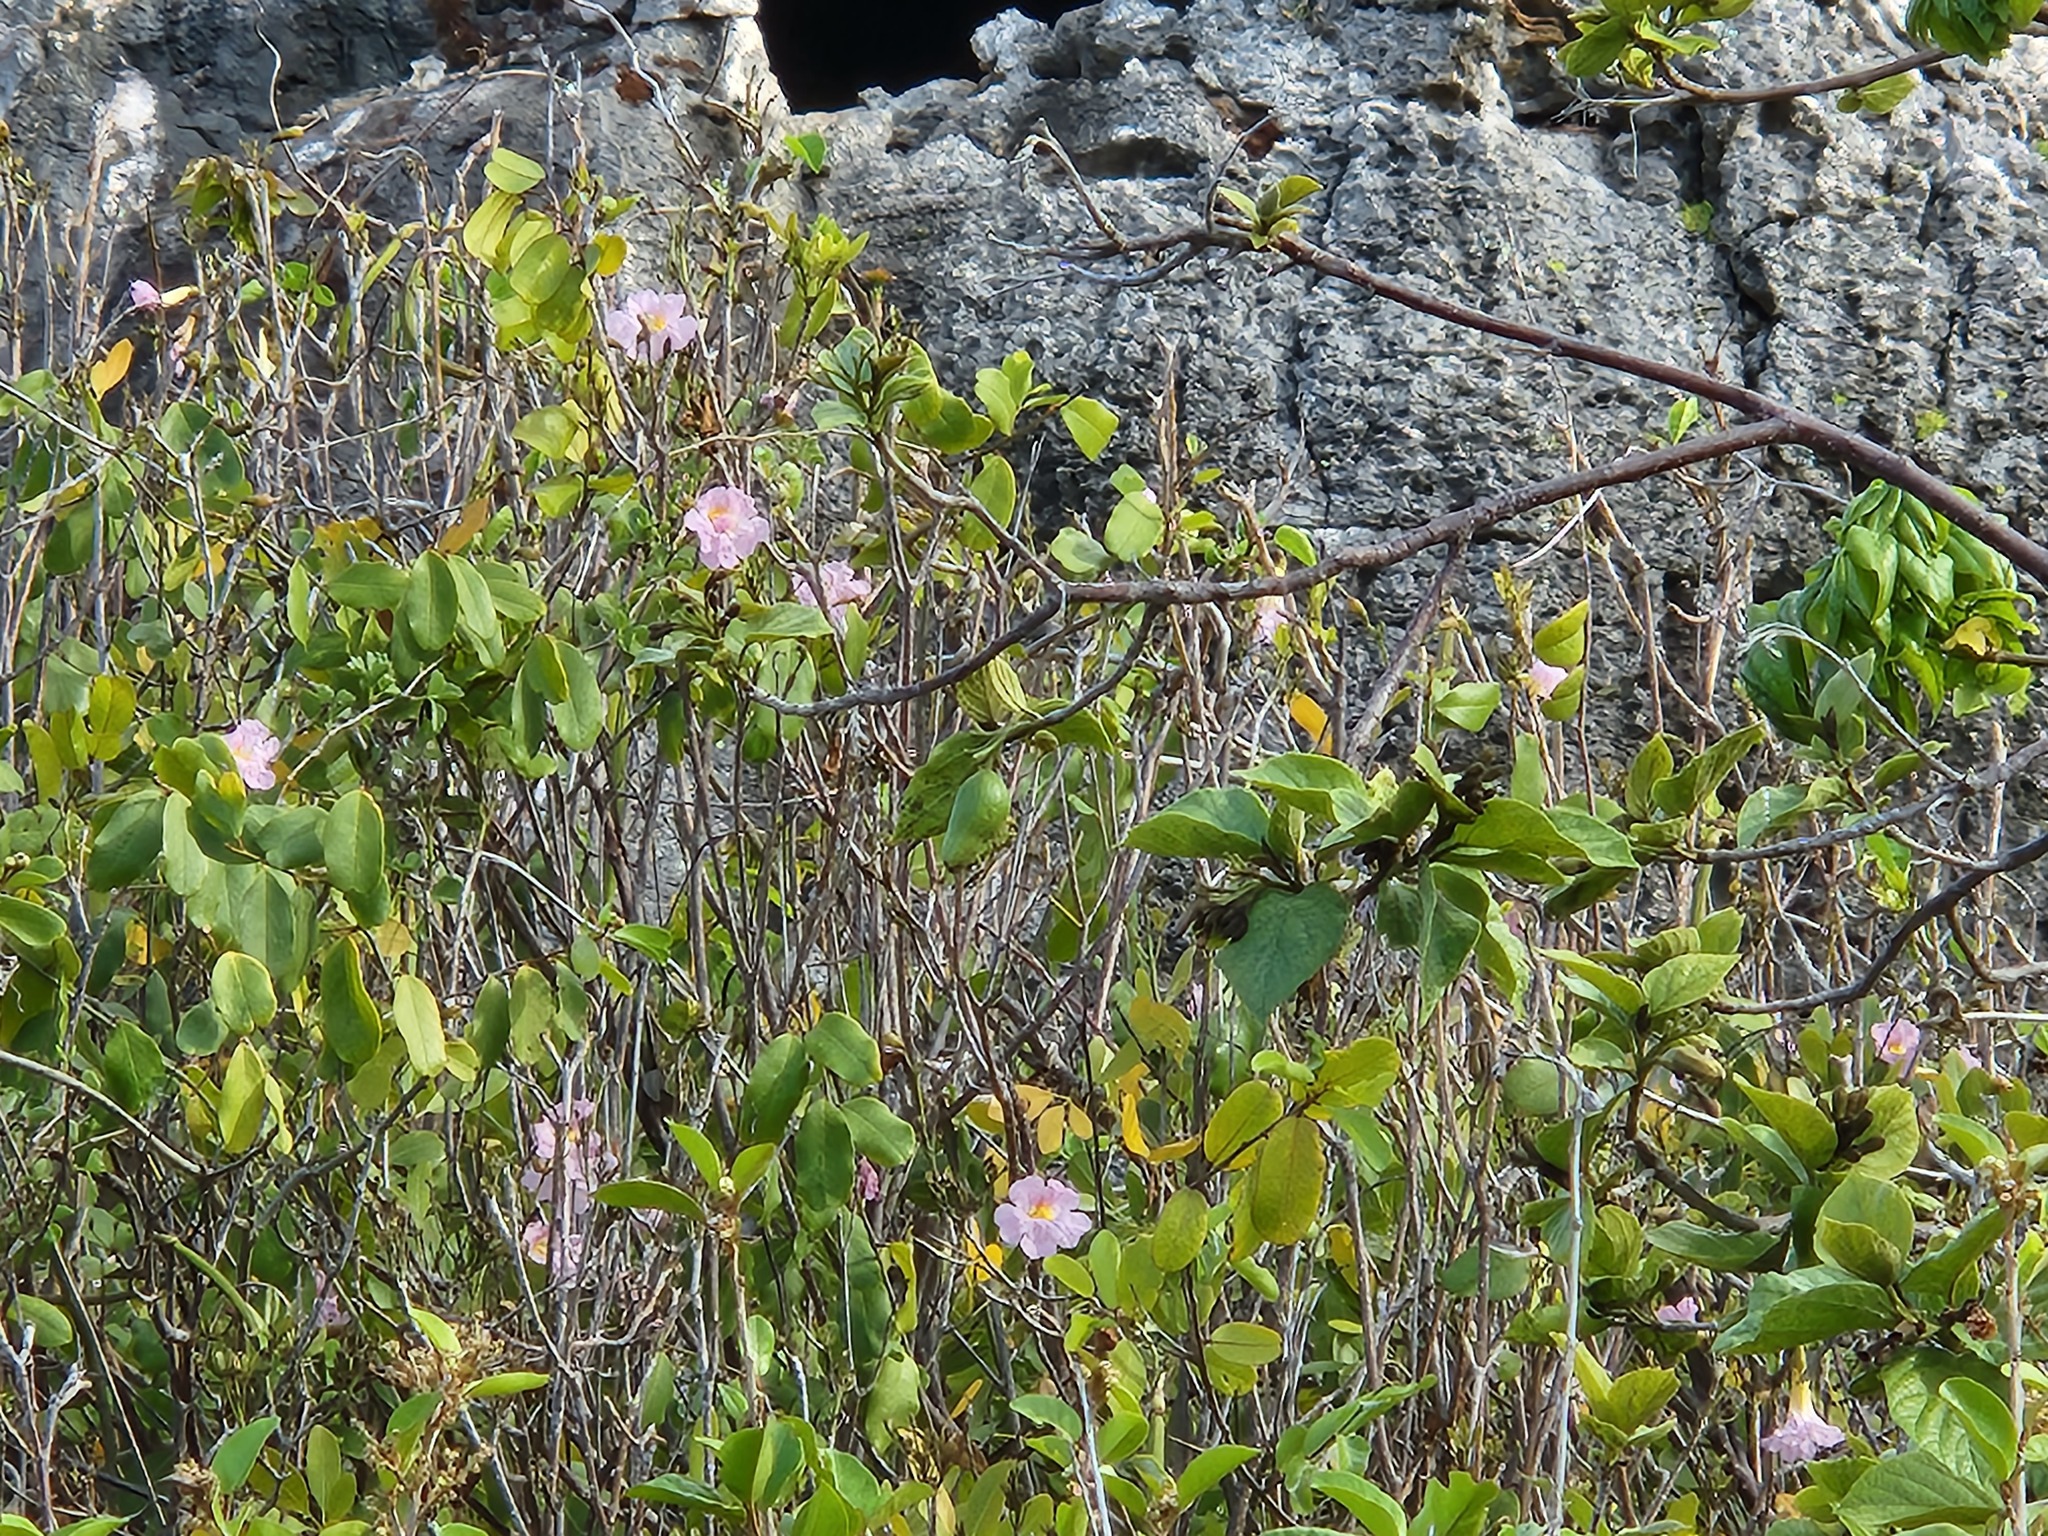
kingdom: Plantae
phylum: Tracheophyta
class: Magnoliopsida
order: Lamiales
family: Bignoniaceae
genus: Tabebuia
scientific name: Tabebuia heterophylla
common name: White cedar
